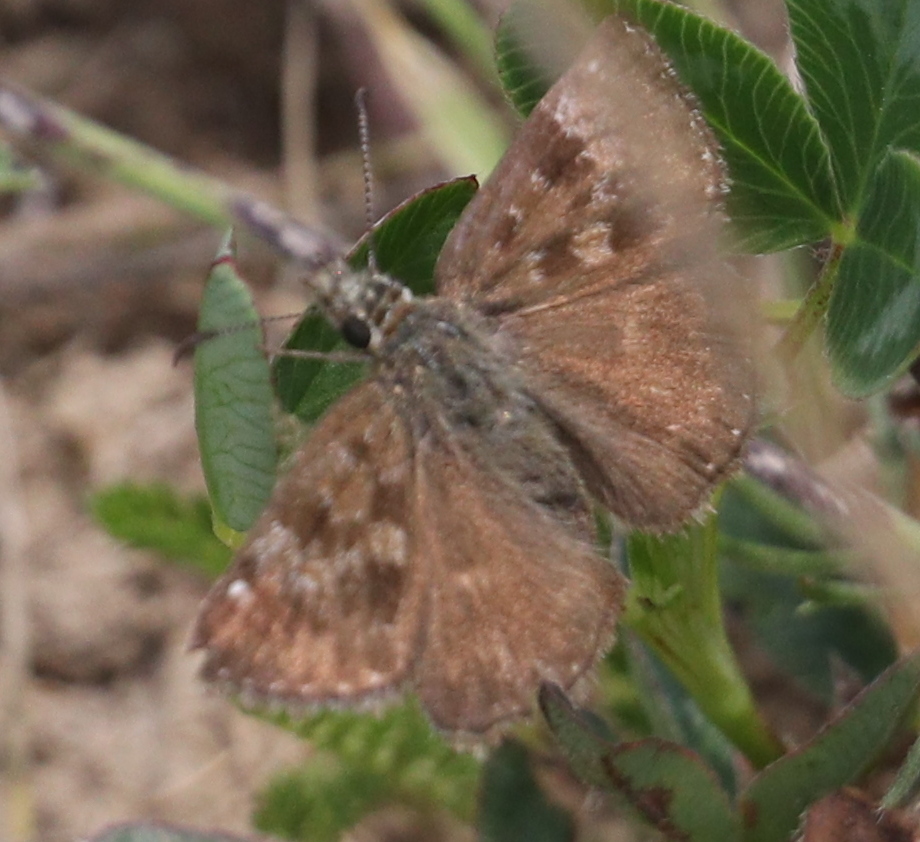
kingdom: Animalia
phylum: Arthropoda
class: Insecta
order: Lepidoptera
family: Hesperiidae
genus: Erynnis
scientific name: Erynnis tages
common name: Dingy skipper
